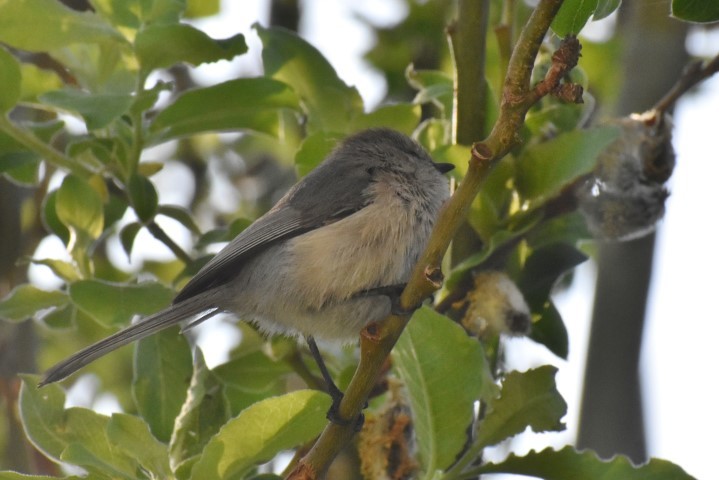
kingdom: Animalia
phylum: Chordata
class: Aves
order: Passeriformes
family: Aegithalidae
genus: Psaltriparus
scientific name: Psaltriparus minimus
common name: American bushtit
